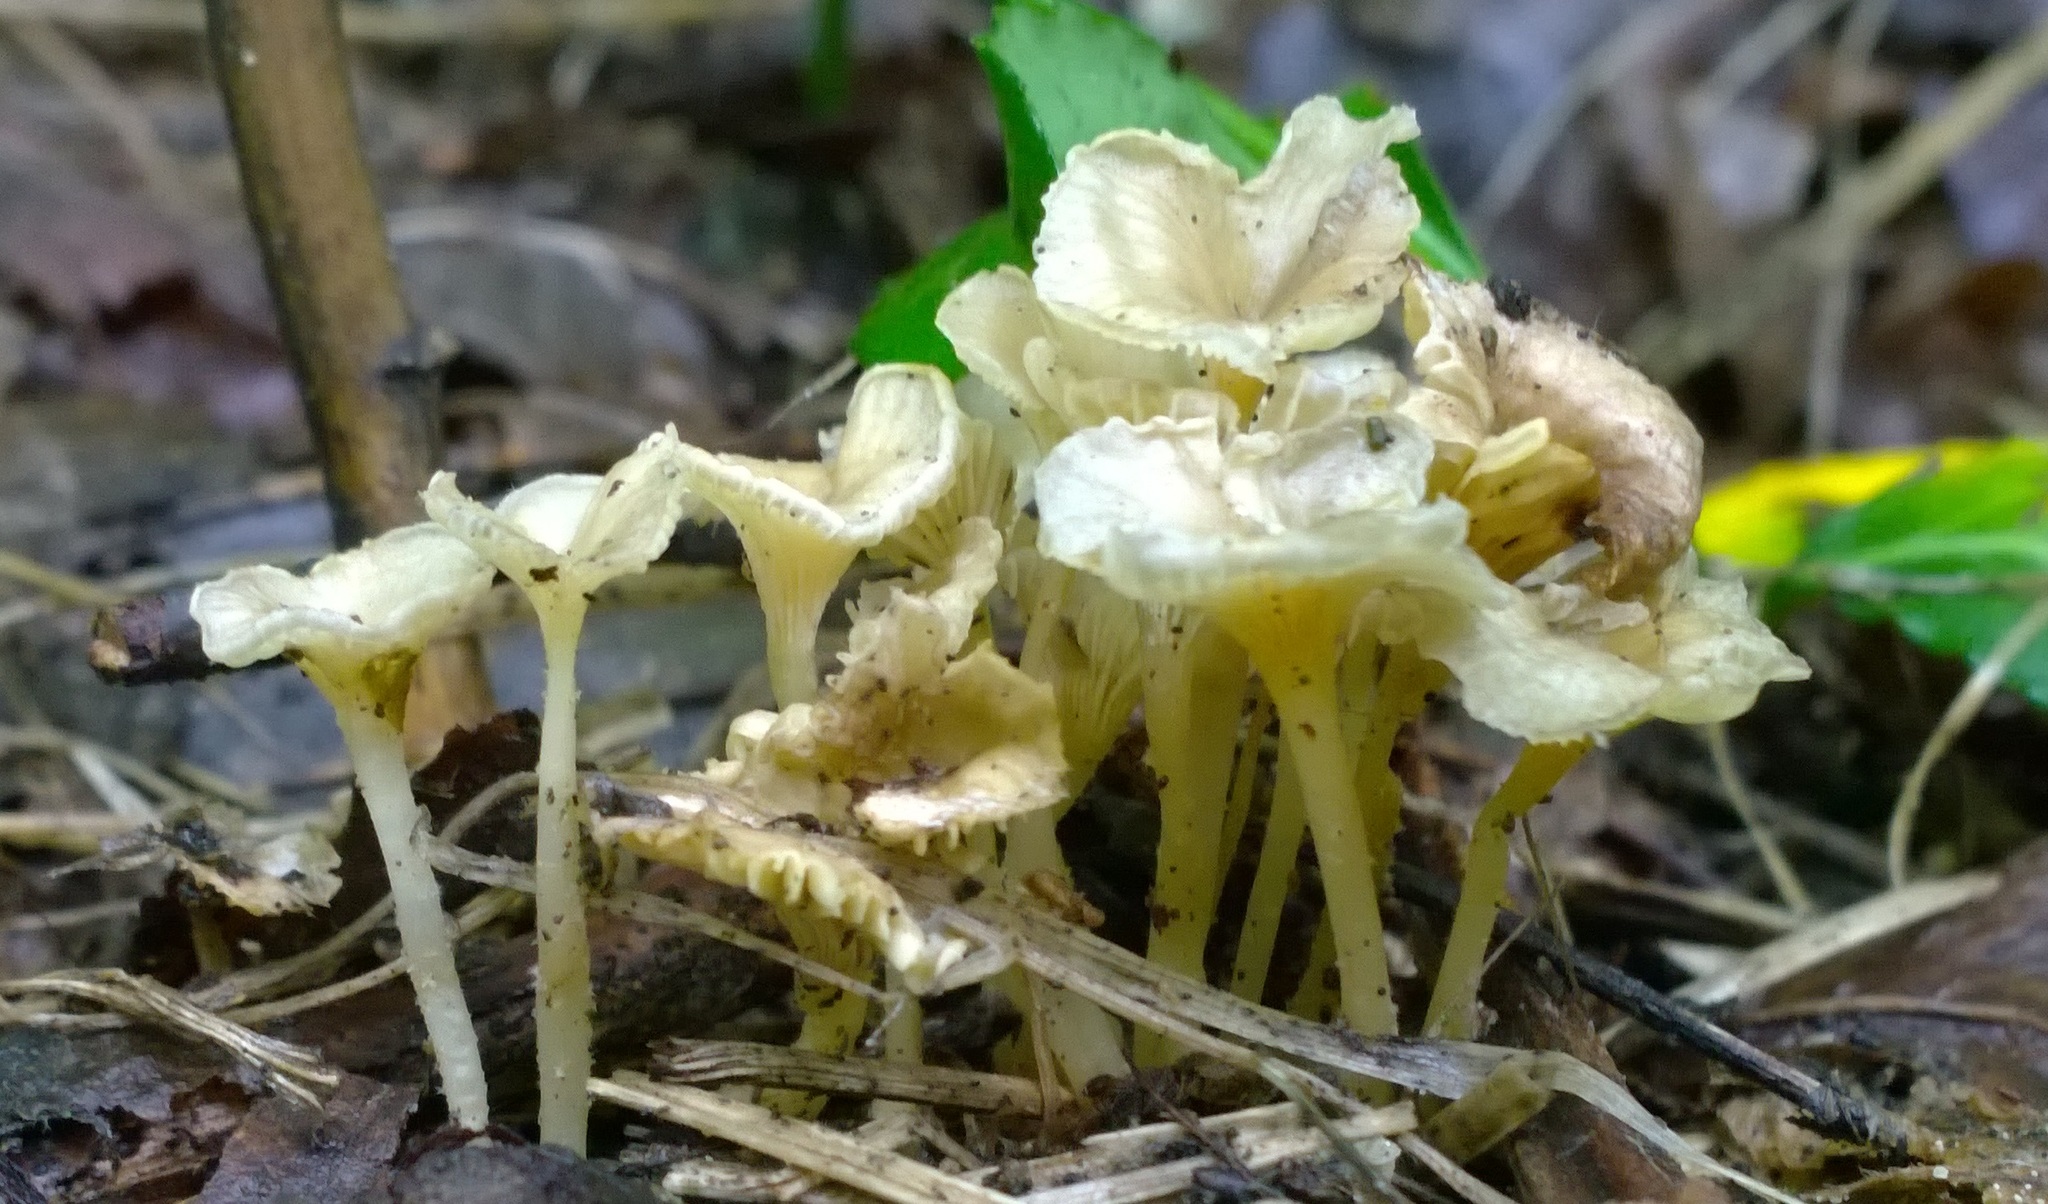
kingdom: Fungi
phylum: Basidiomycota
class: Agaricomycetes
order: Agaricales
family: Marasmiaceae
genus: Gerronema
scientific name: Gerronema strombodes
